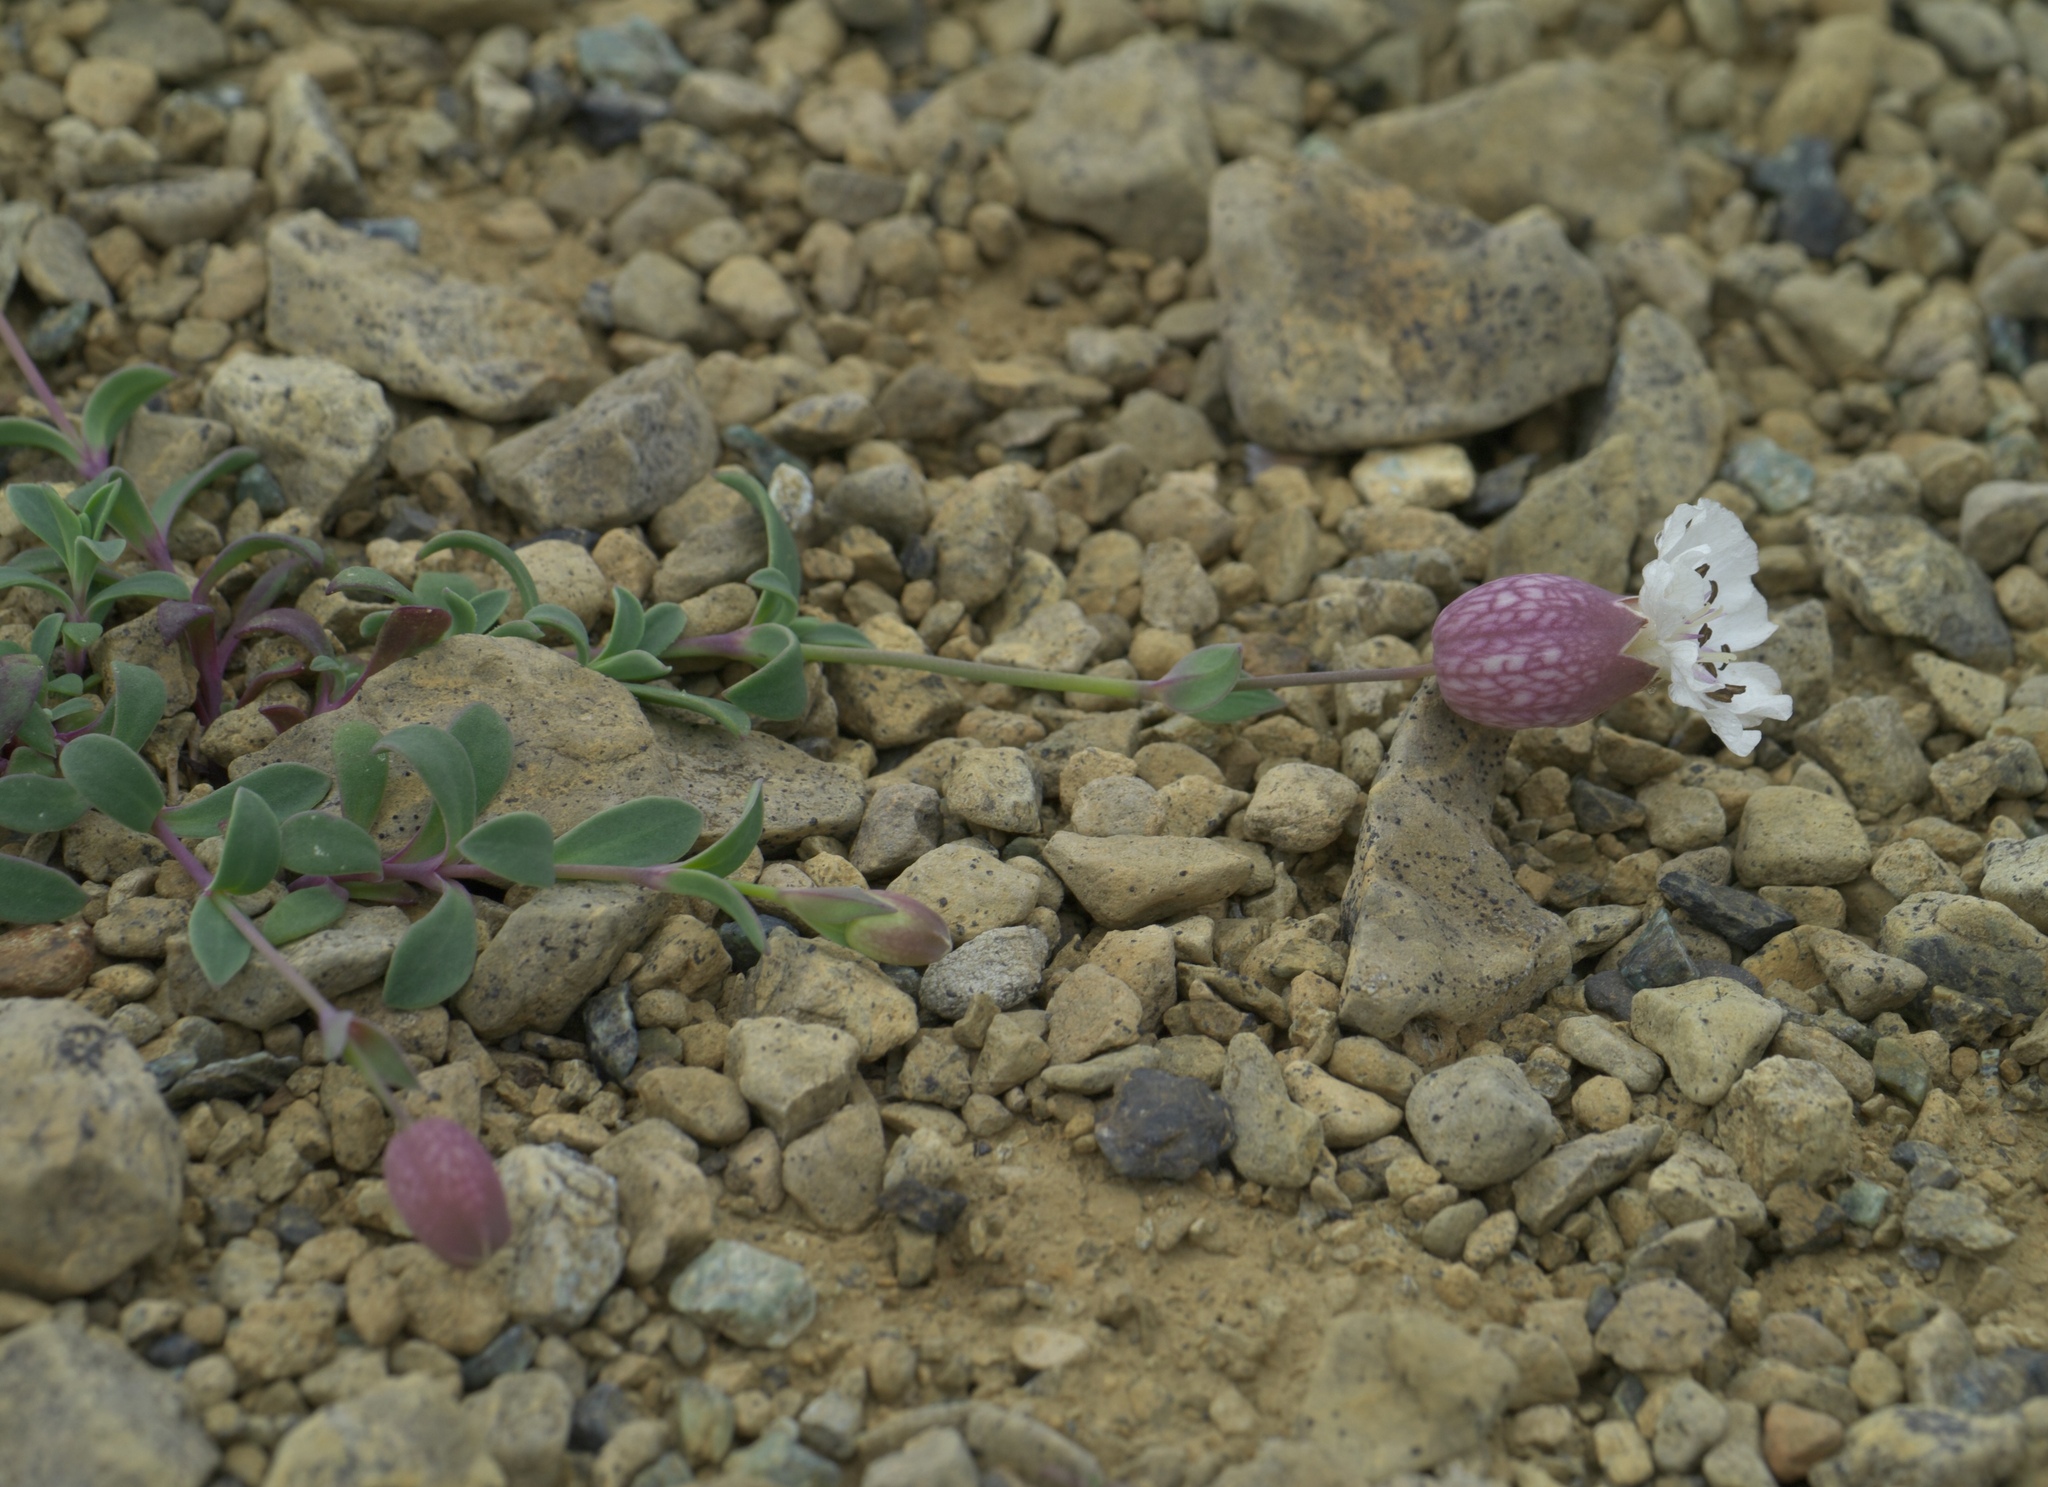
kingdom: Plantae
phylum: Tracheophyta
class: Magnoliopsida
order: Caryophyllales
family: Caryophyllaceae
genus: Silene
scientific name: Silene uniflora
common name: Sea campion
